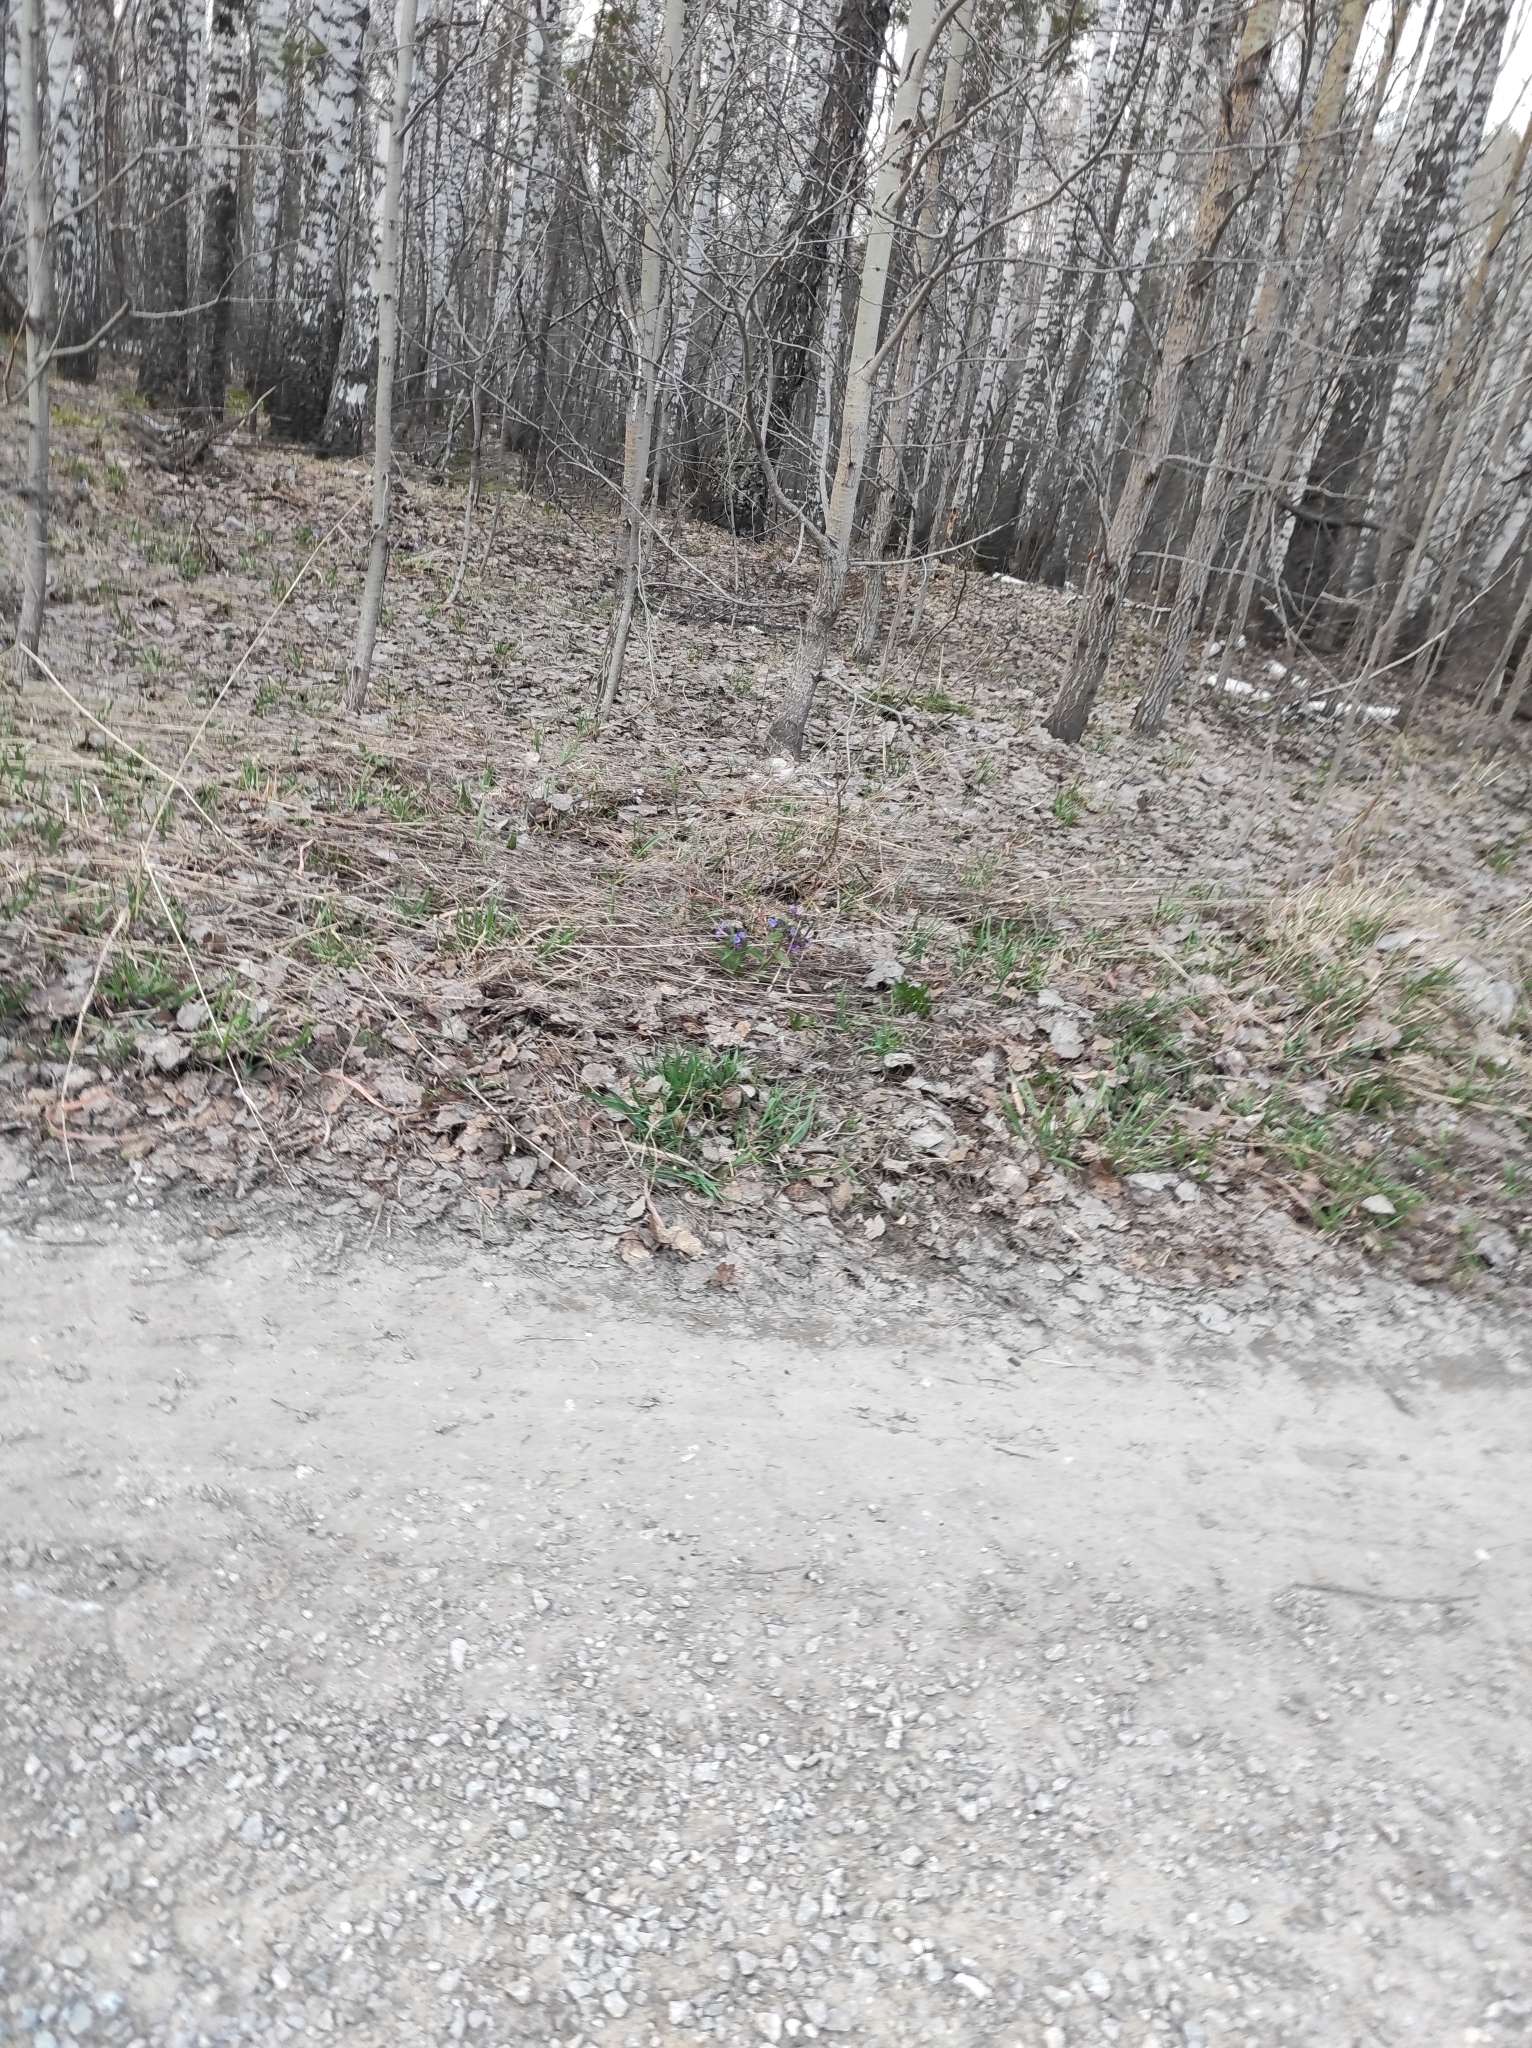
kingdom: Plantae
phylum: Tracheophyta
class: Magnoliopsida
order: Boraginales
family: Boraginaceae
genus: Pulmonaria
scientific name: Pulmonaria mollis
